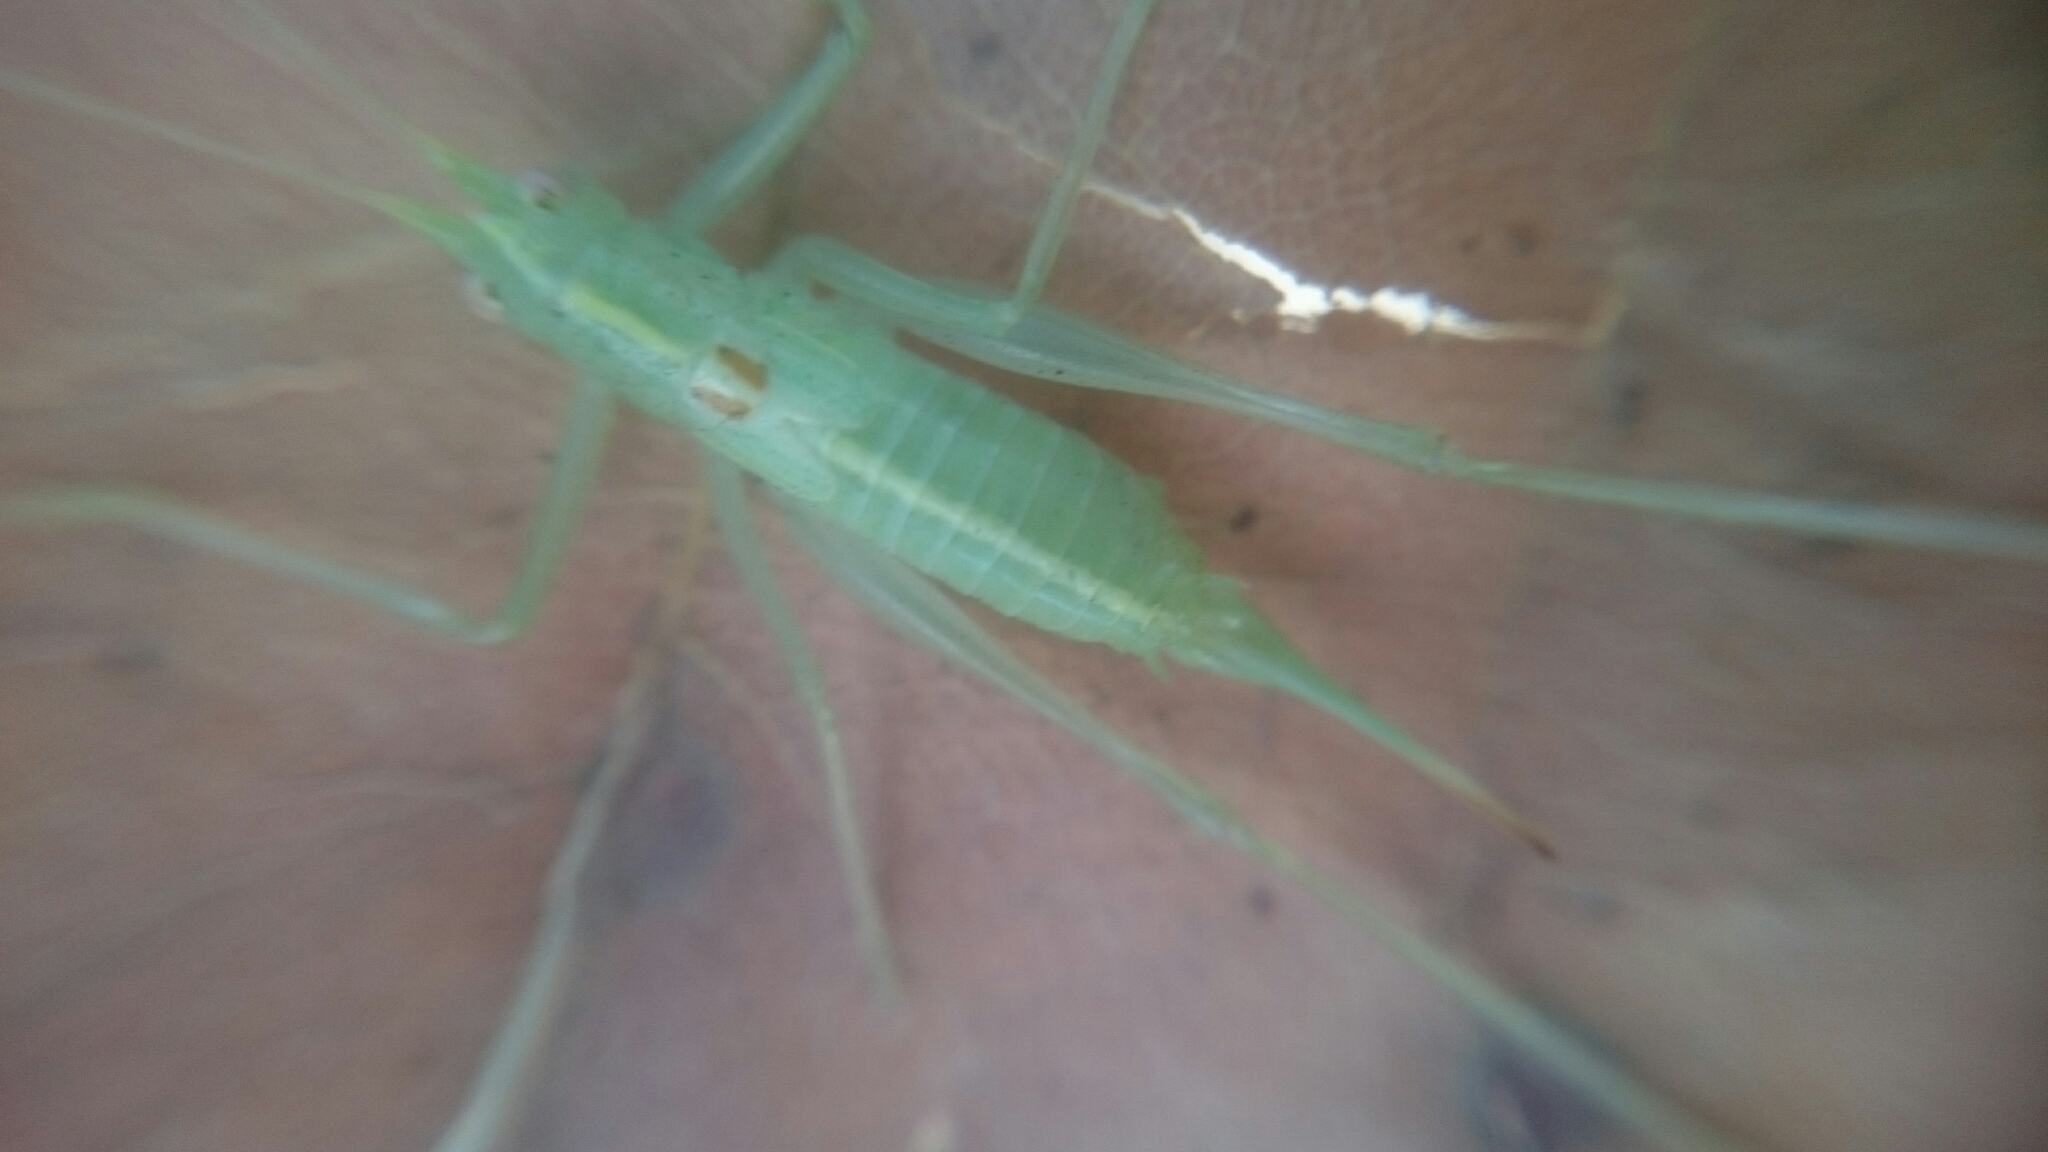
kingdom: Animalia
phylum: Arthropoda
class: Insecta
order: Orthoptera
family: Tettigoniidae
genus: Meconema
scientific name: Meconema meridionale
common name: Southern oak bush-cricket
